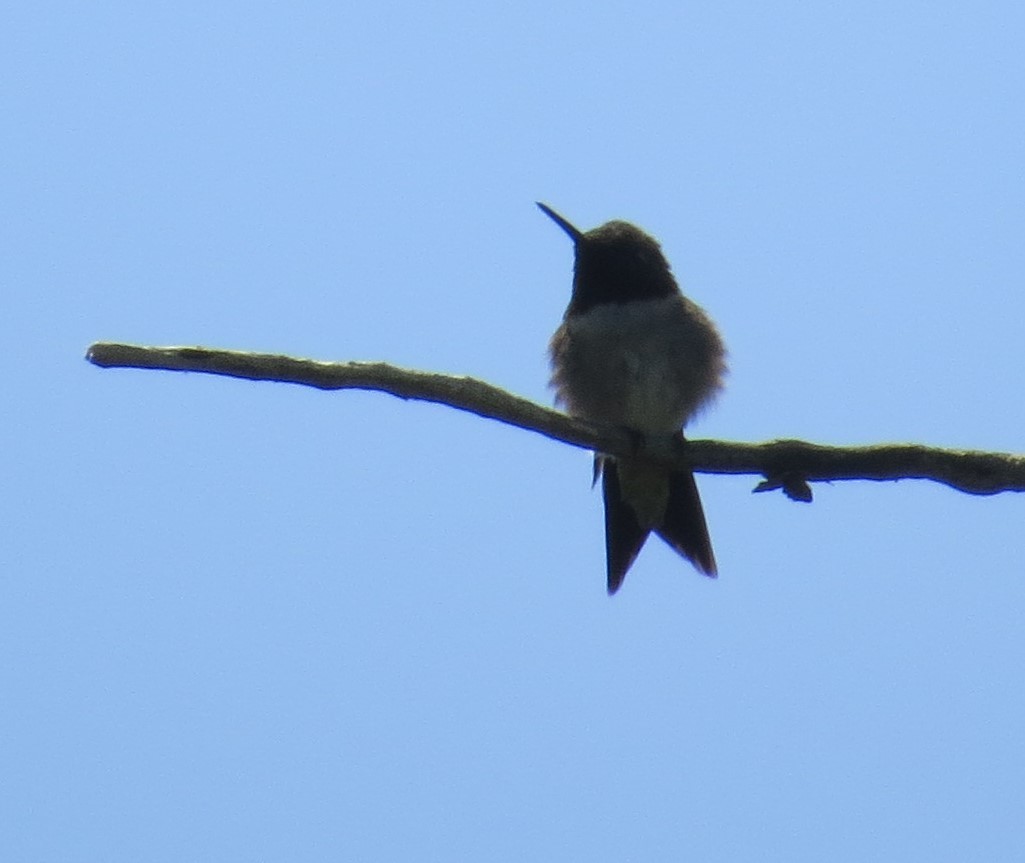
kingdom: Animalia
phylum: Chordata
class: Aves
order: Apodiformes
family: Trochilidae
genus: Archilochus
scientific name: Archilochus colubris
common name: Ruby-throated hummingbird
